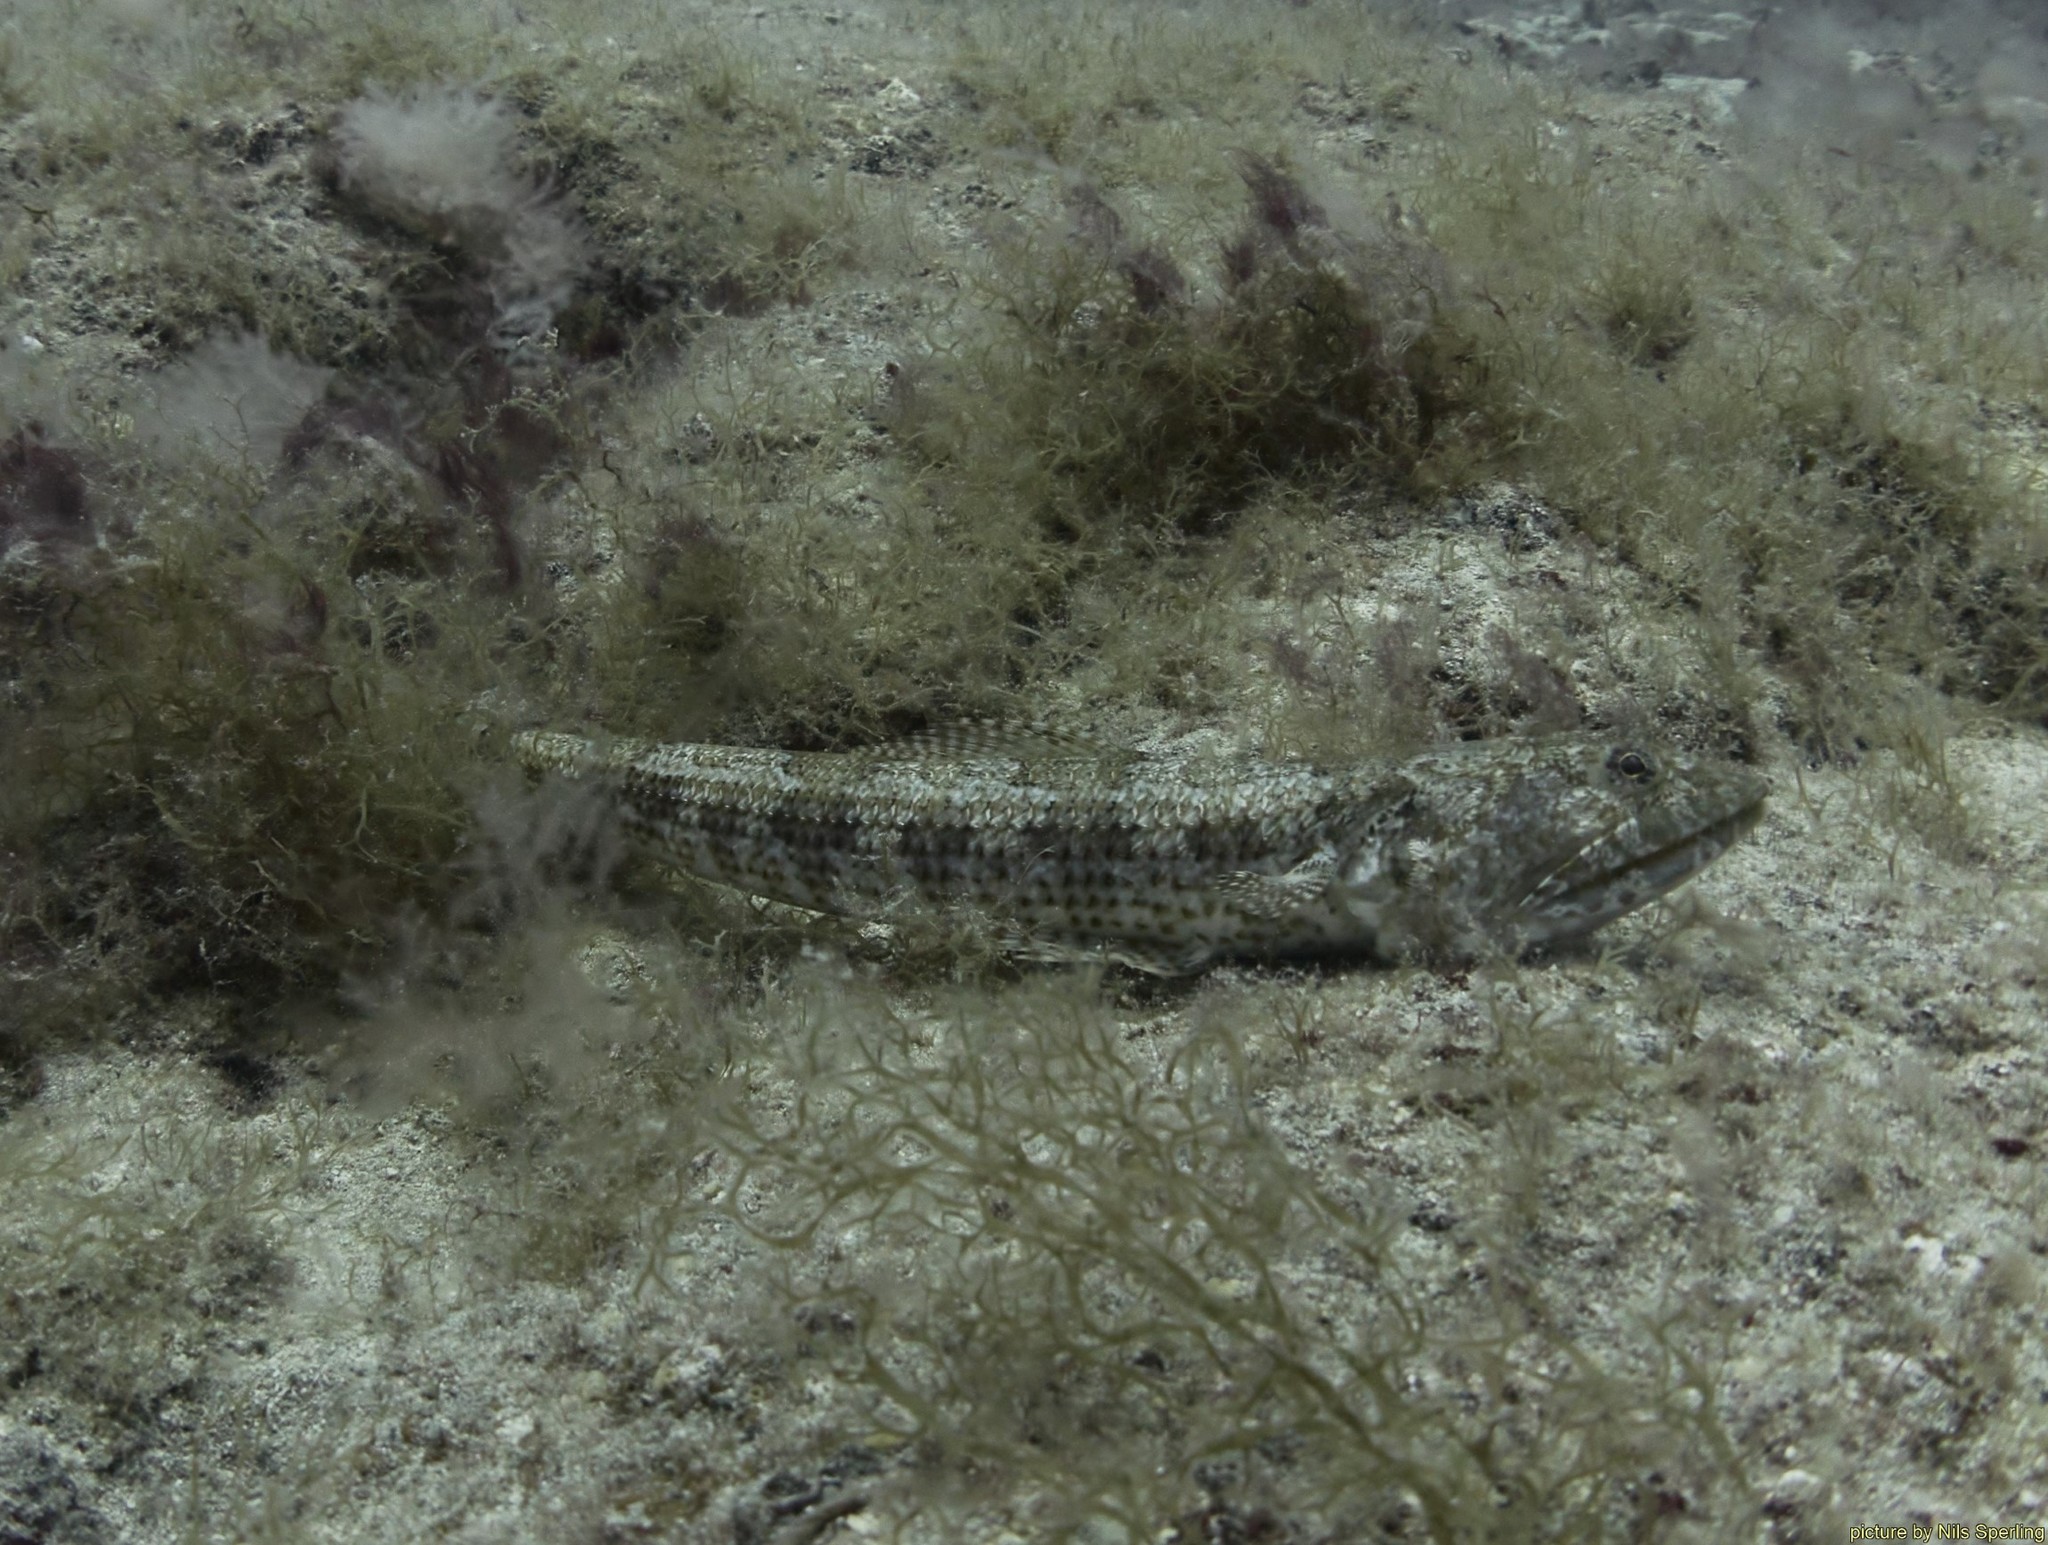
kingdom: Animalia
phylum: Chordata
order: Aulopiformes
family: Synodontidae
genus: Synodus
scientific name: Synodus synodus
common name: Red lizardfish
